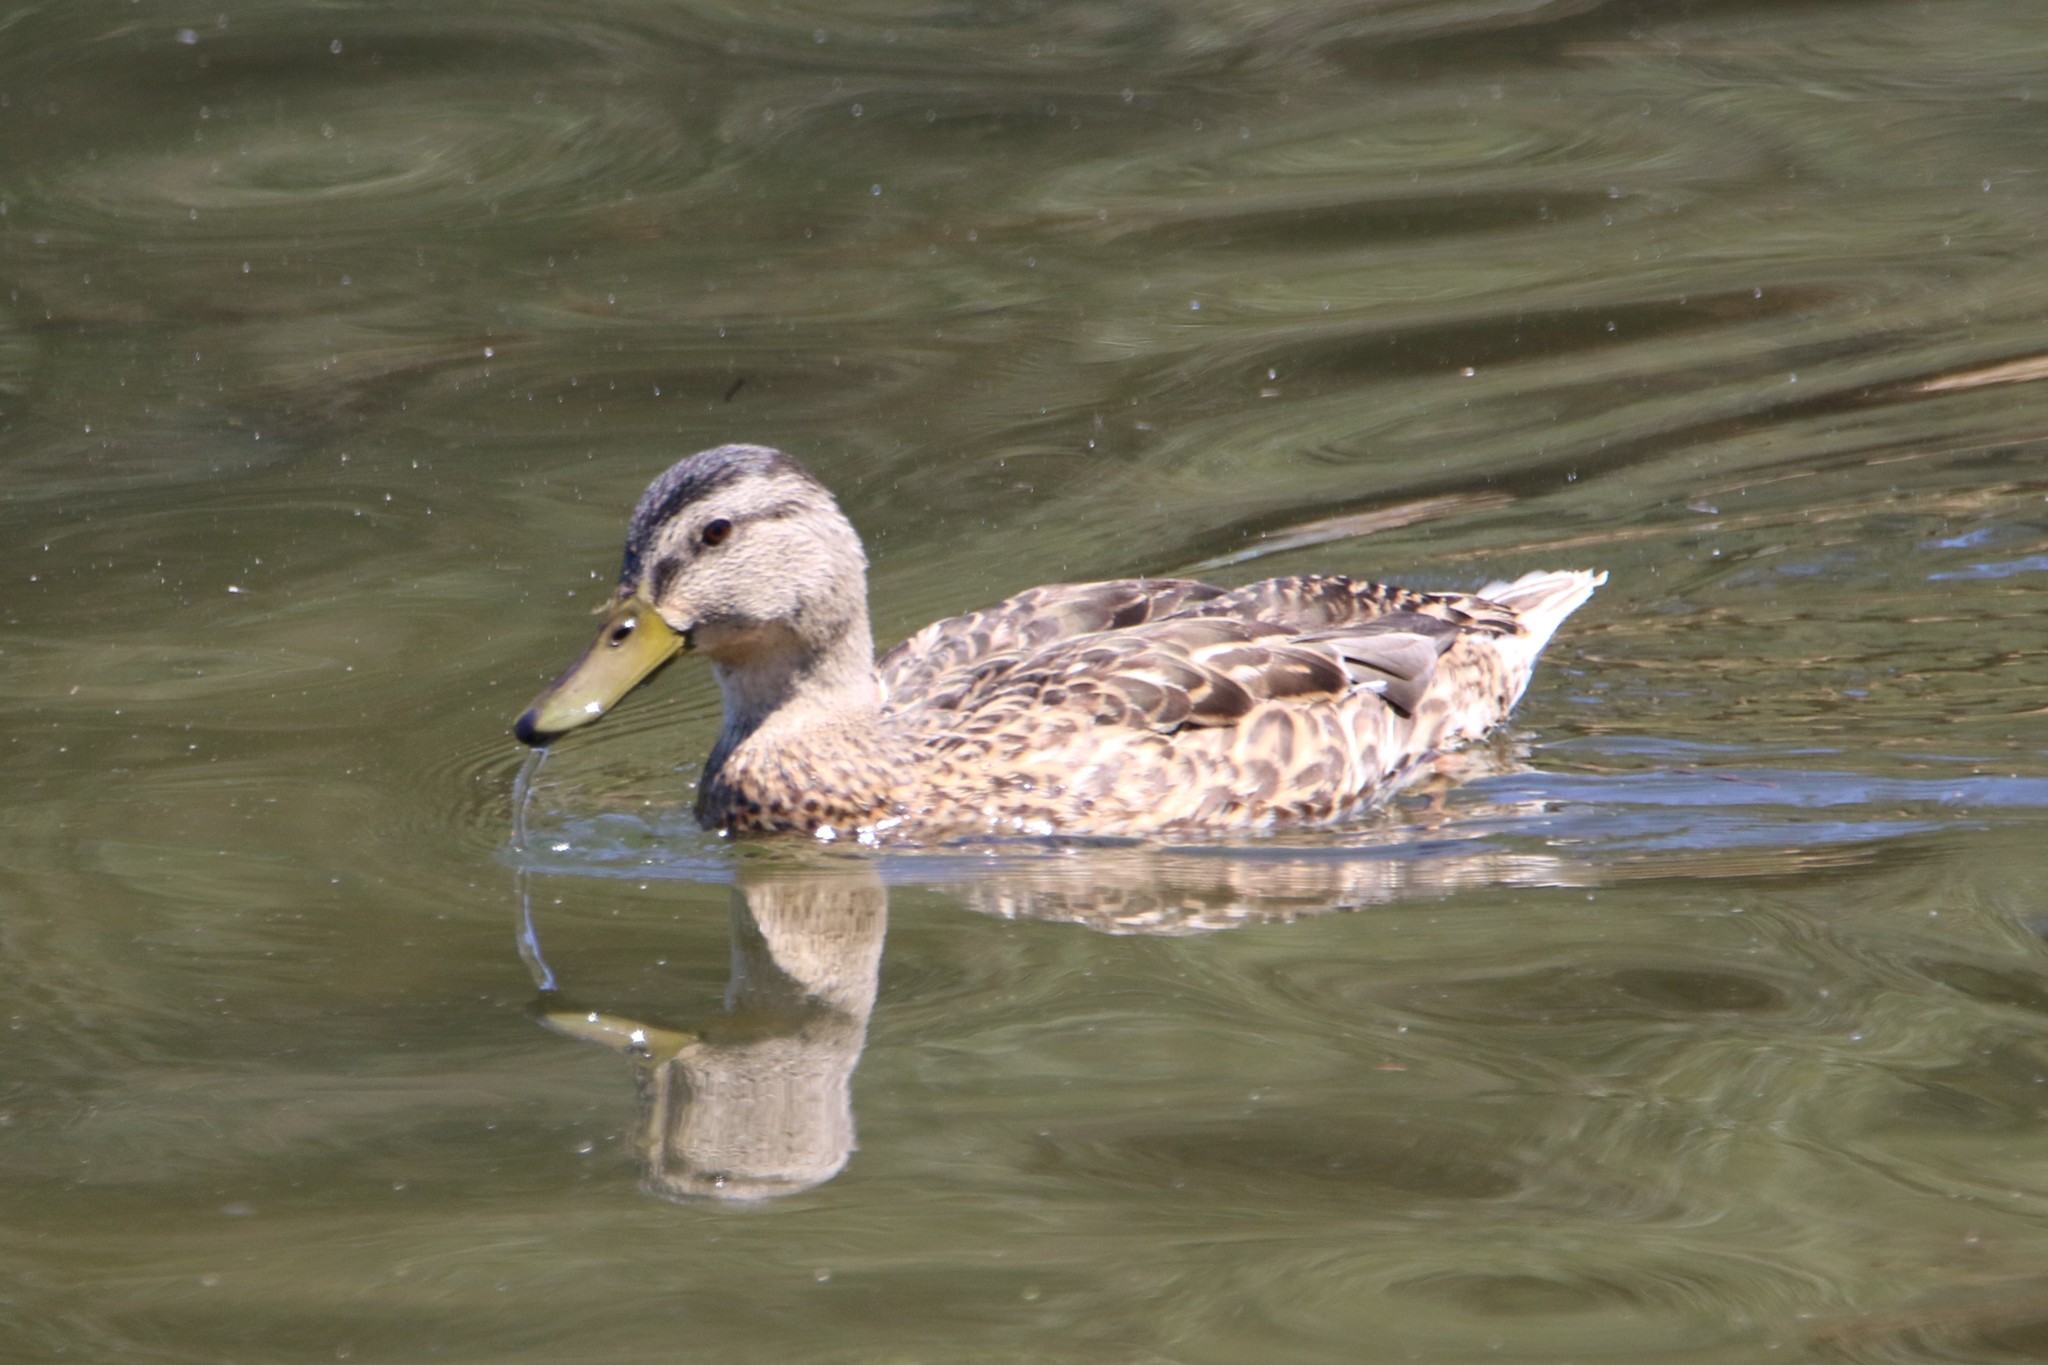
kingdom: Animalia
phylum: Chordata
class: Aves
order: Anseriformes
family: Anatidae
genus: Anas
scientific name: Anas platyrhynchos
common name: Mallard
